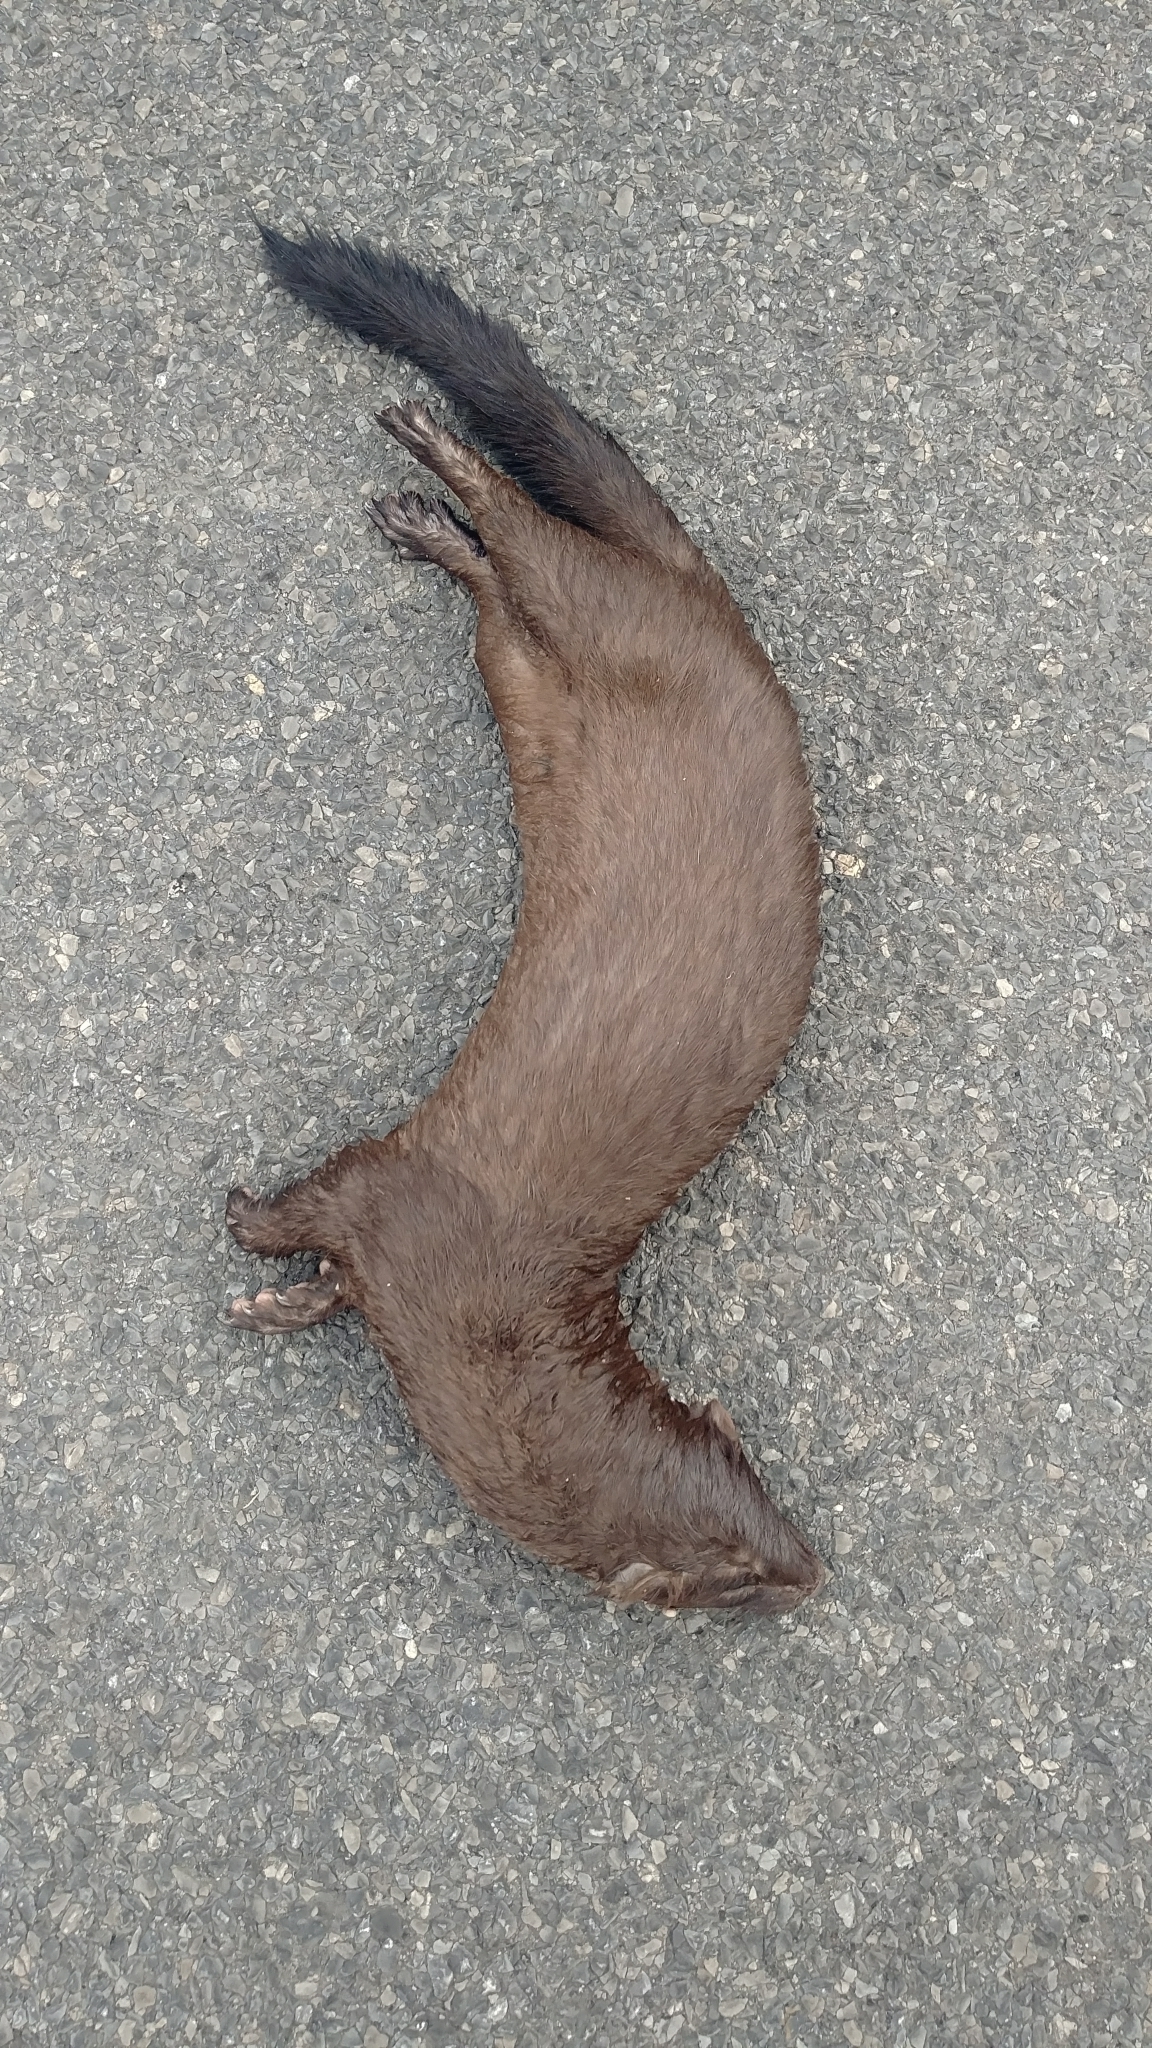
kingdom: Animalia
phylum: Chordata
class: Mammalia
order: Carnivora
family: Mustelidae
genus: Mustela
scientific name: Mustela
